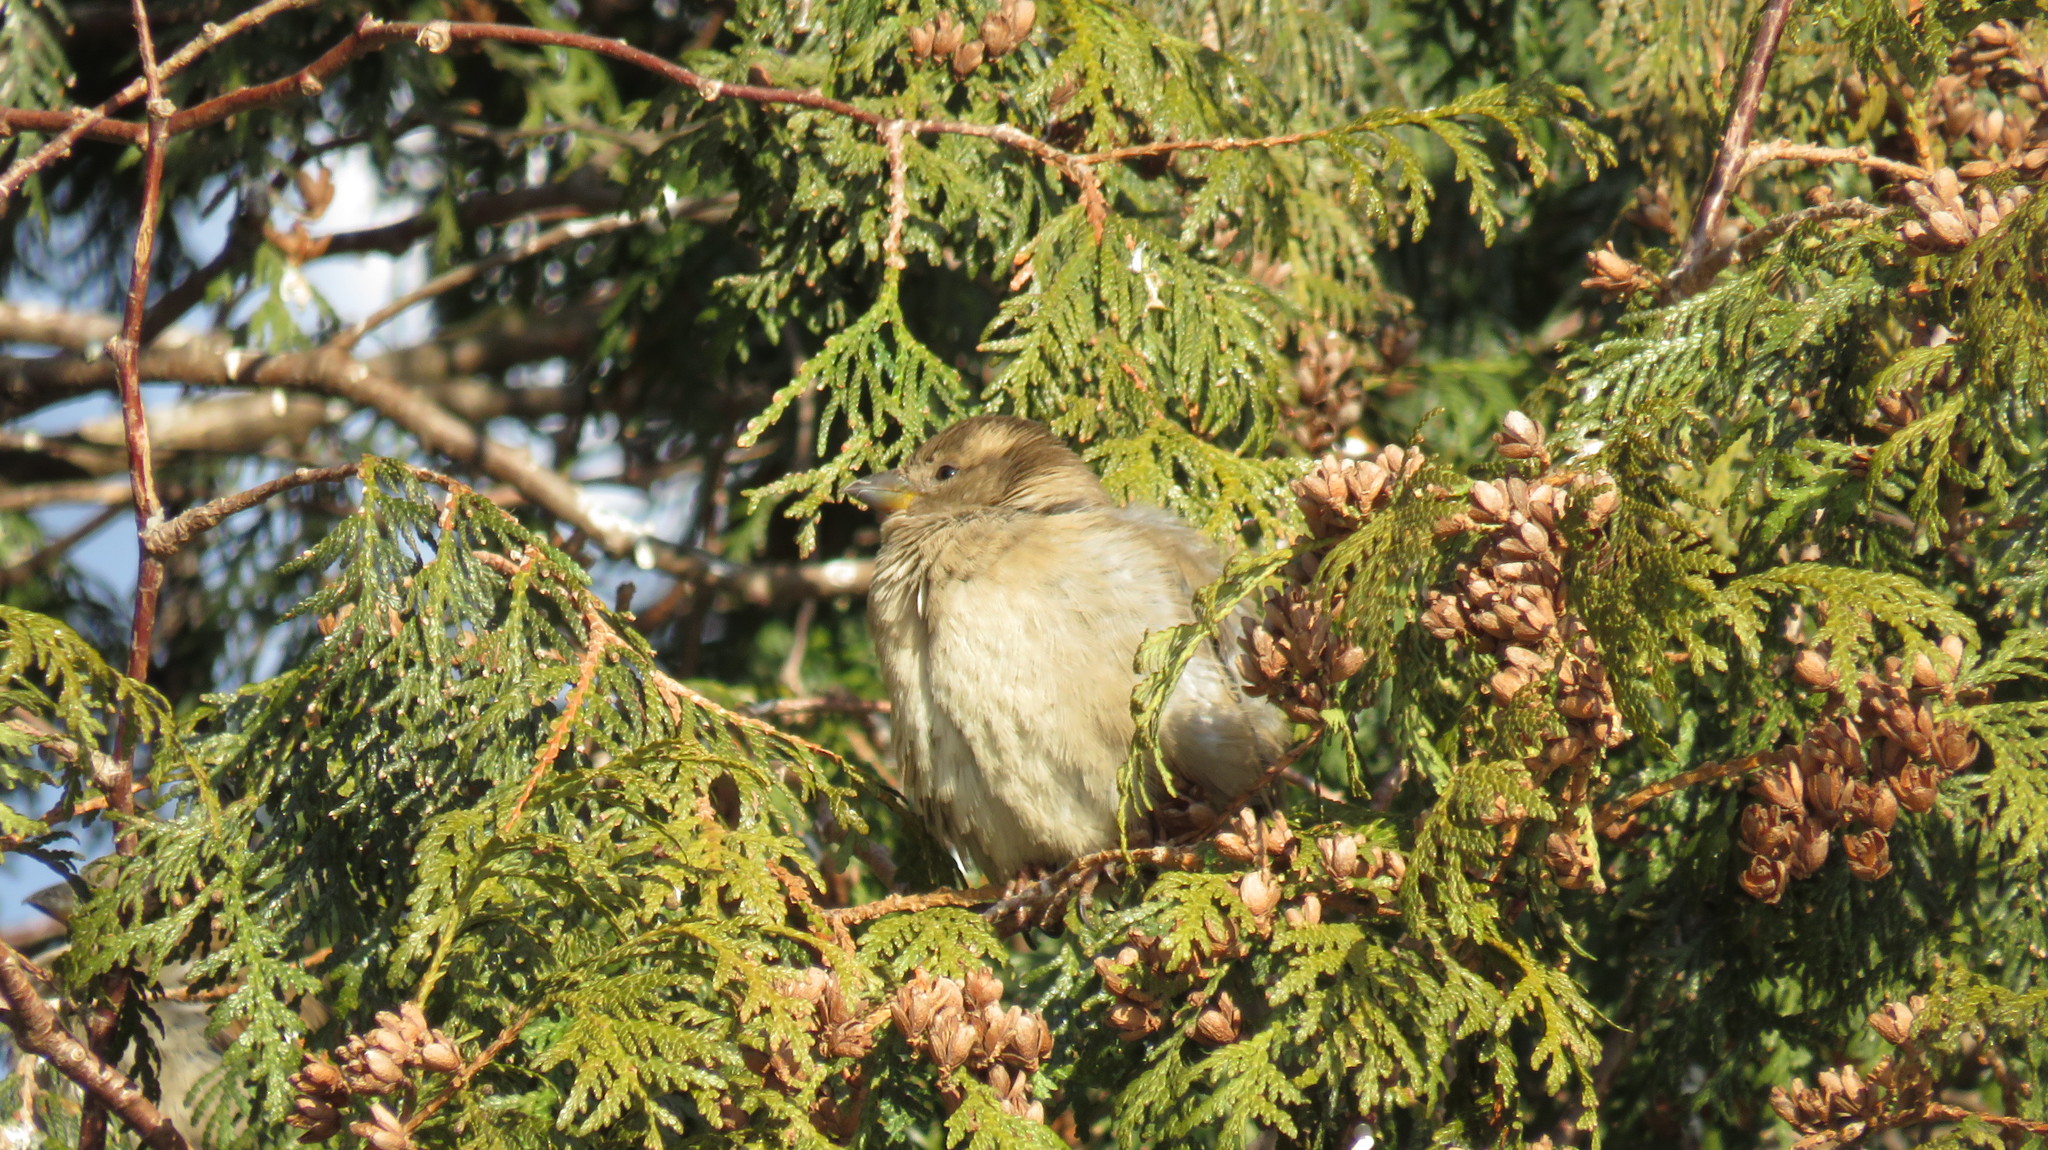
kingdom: Animalia
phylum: Chordata
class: Aves
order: Passeriformes
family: Passeridae
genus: Passer
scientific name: Passer domesticus
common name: House sparrow
